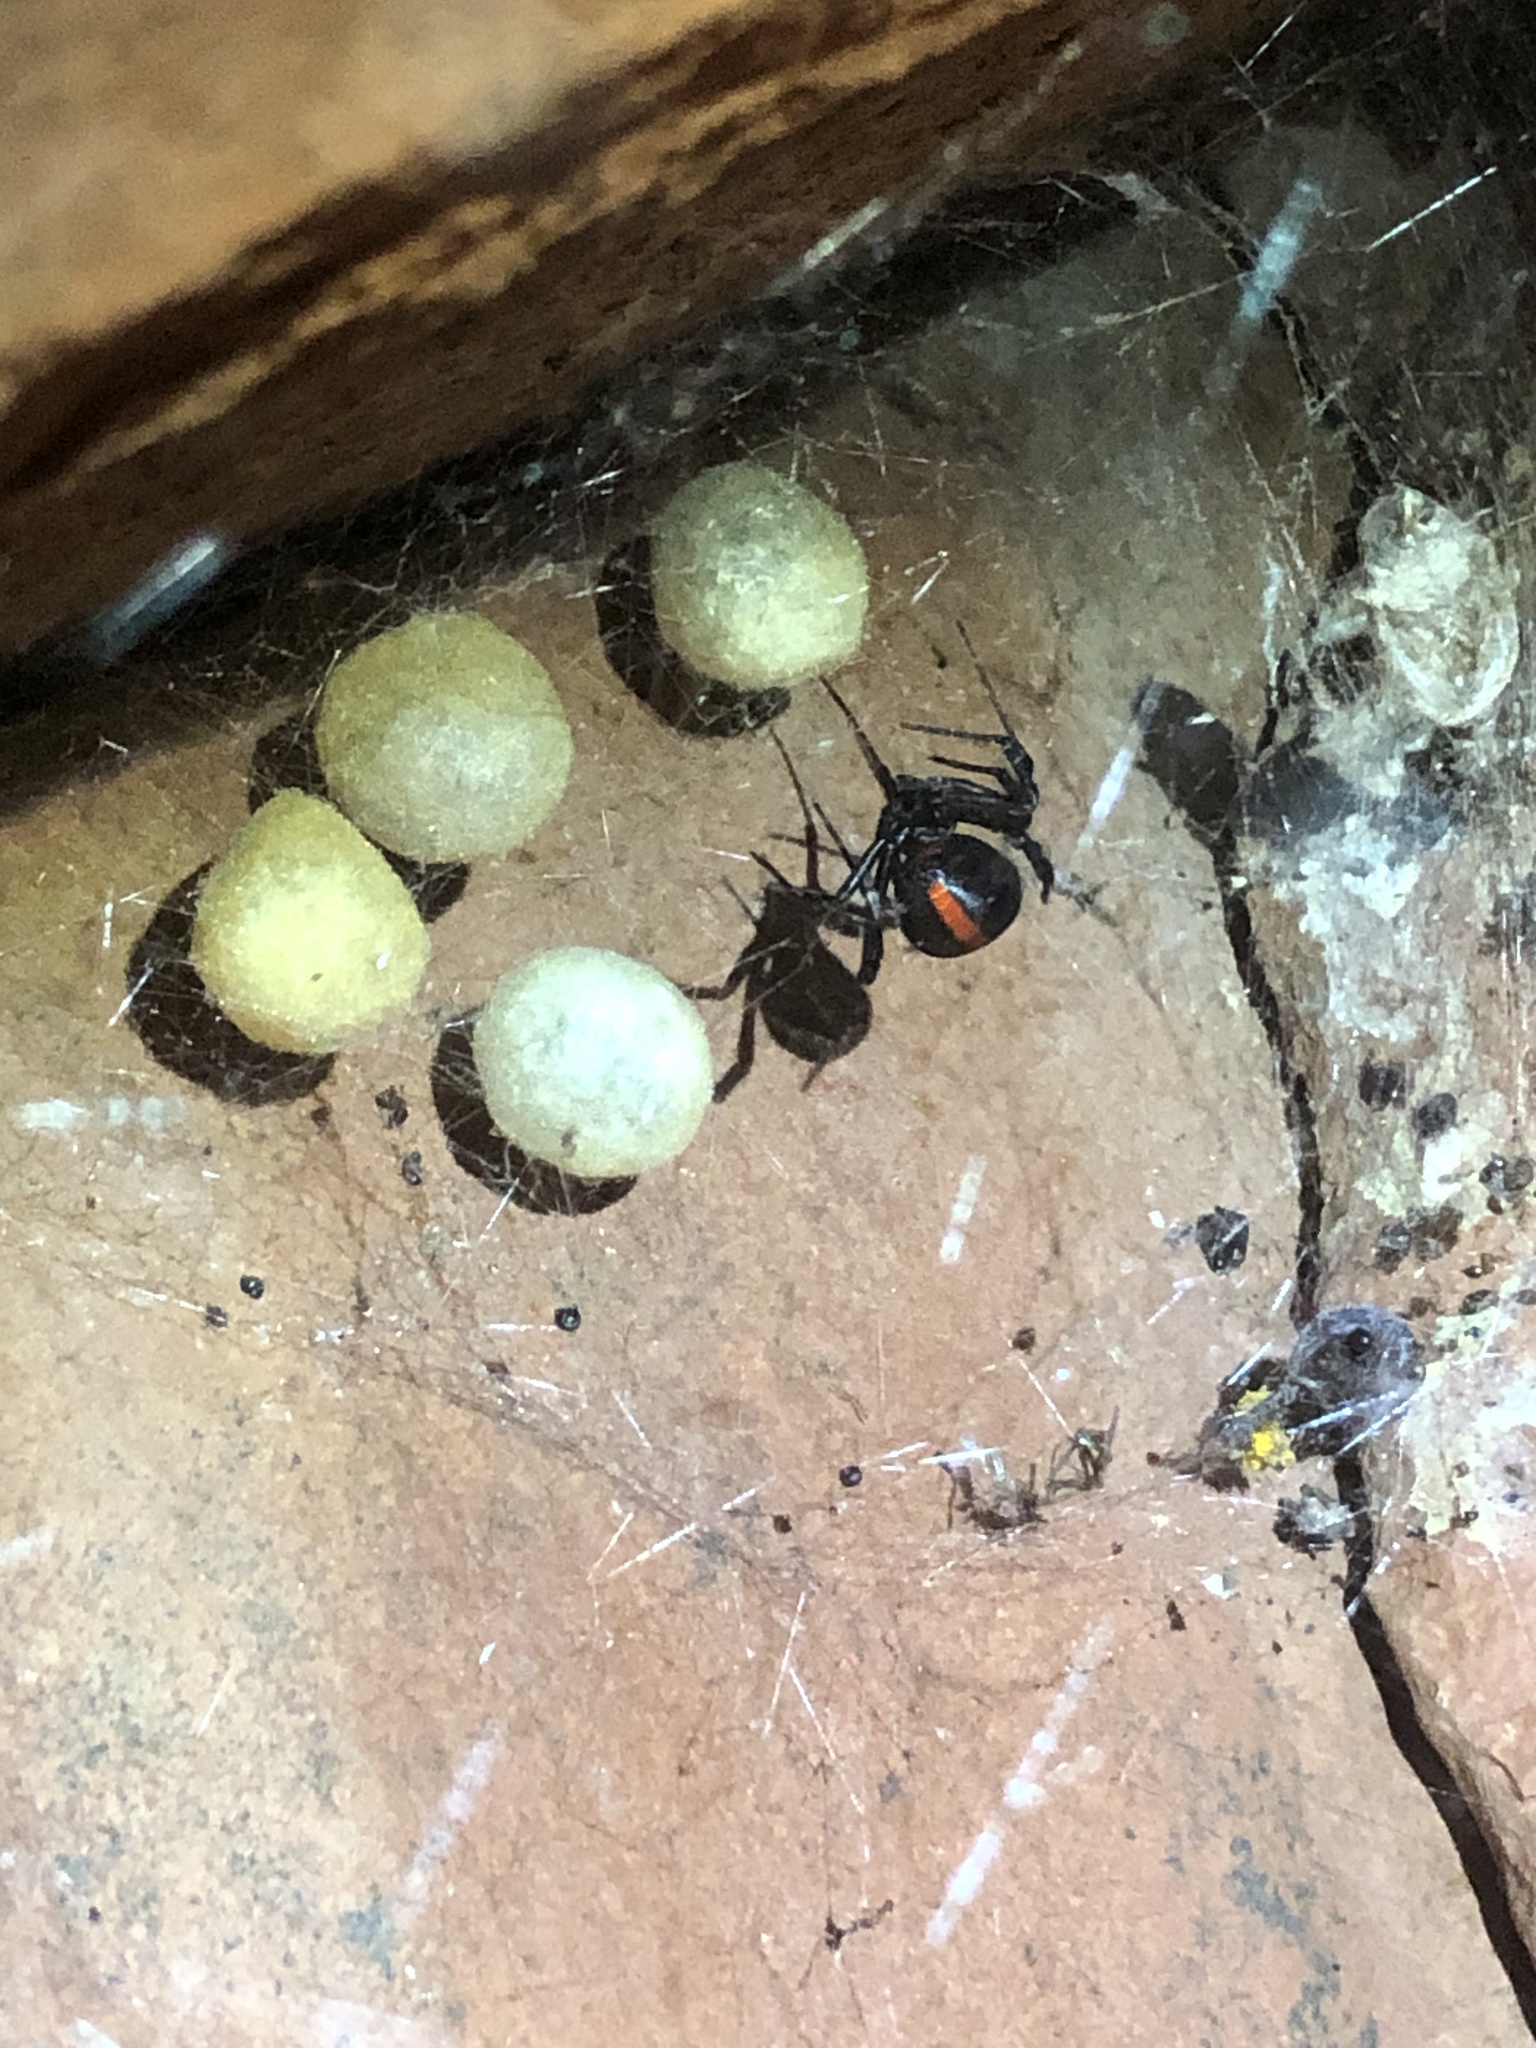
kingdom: Animalia
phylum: Arthropoda
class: Arachnida
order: Araneae
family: Theridiidae
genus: Latrodectus
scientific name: Latrodectus hasselti
